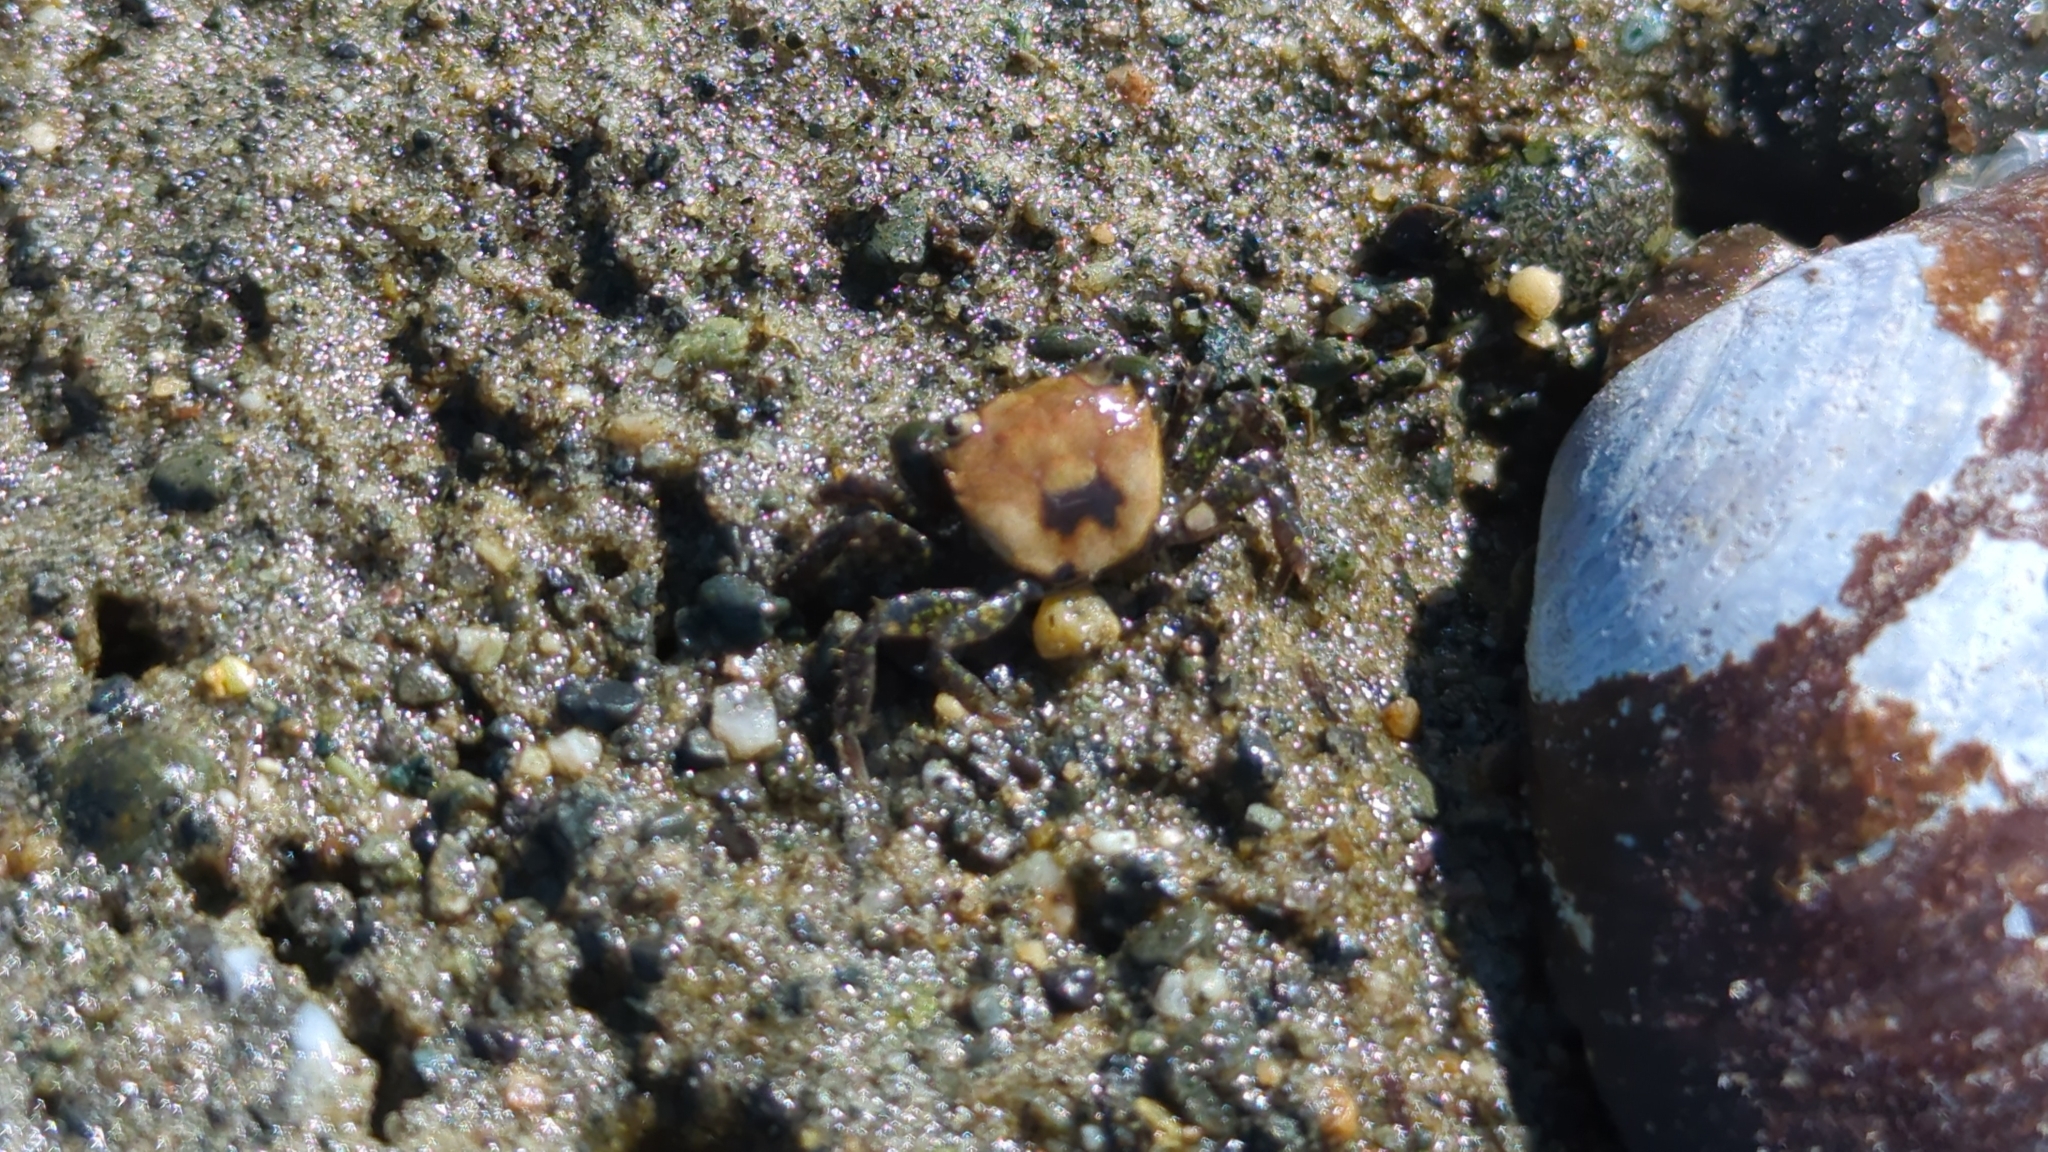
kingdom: Animalia
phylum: Arthropoda
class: Malacostraca
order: Decapoda
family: Varunidae
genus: Hemigrapsus
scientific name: Hemigrapsus oregonensis
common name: Yellow shore crab
